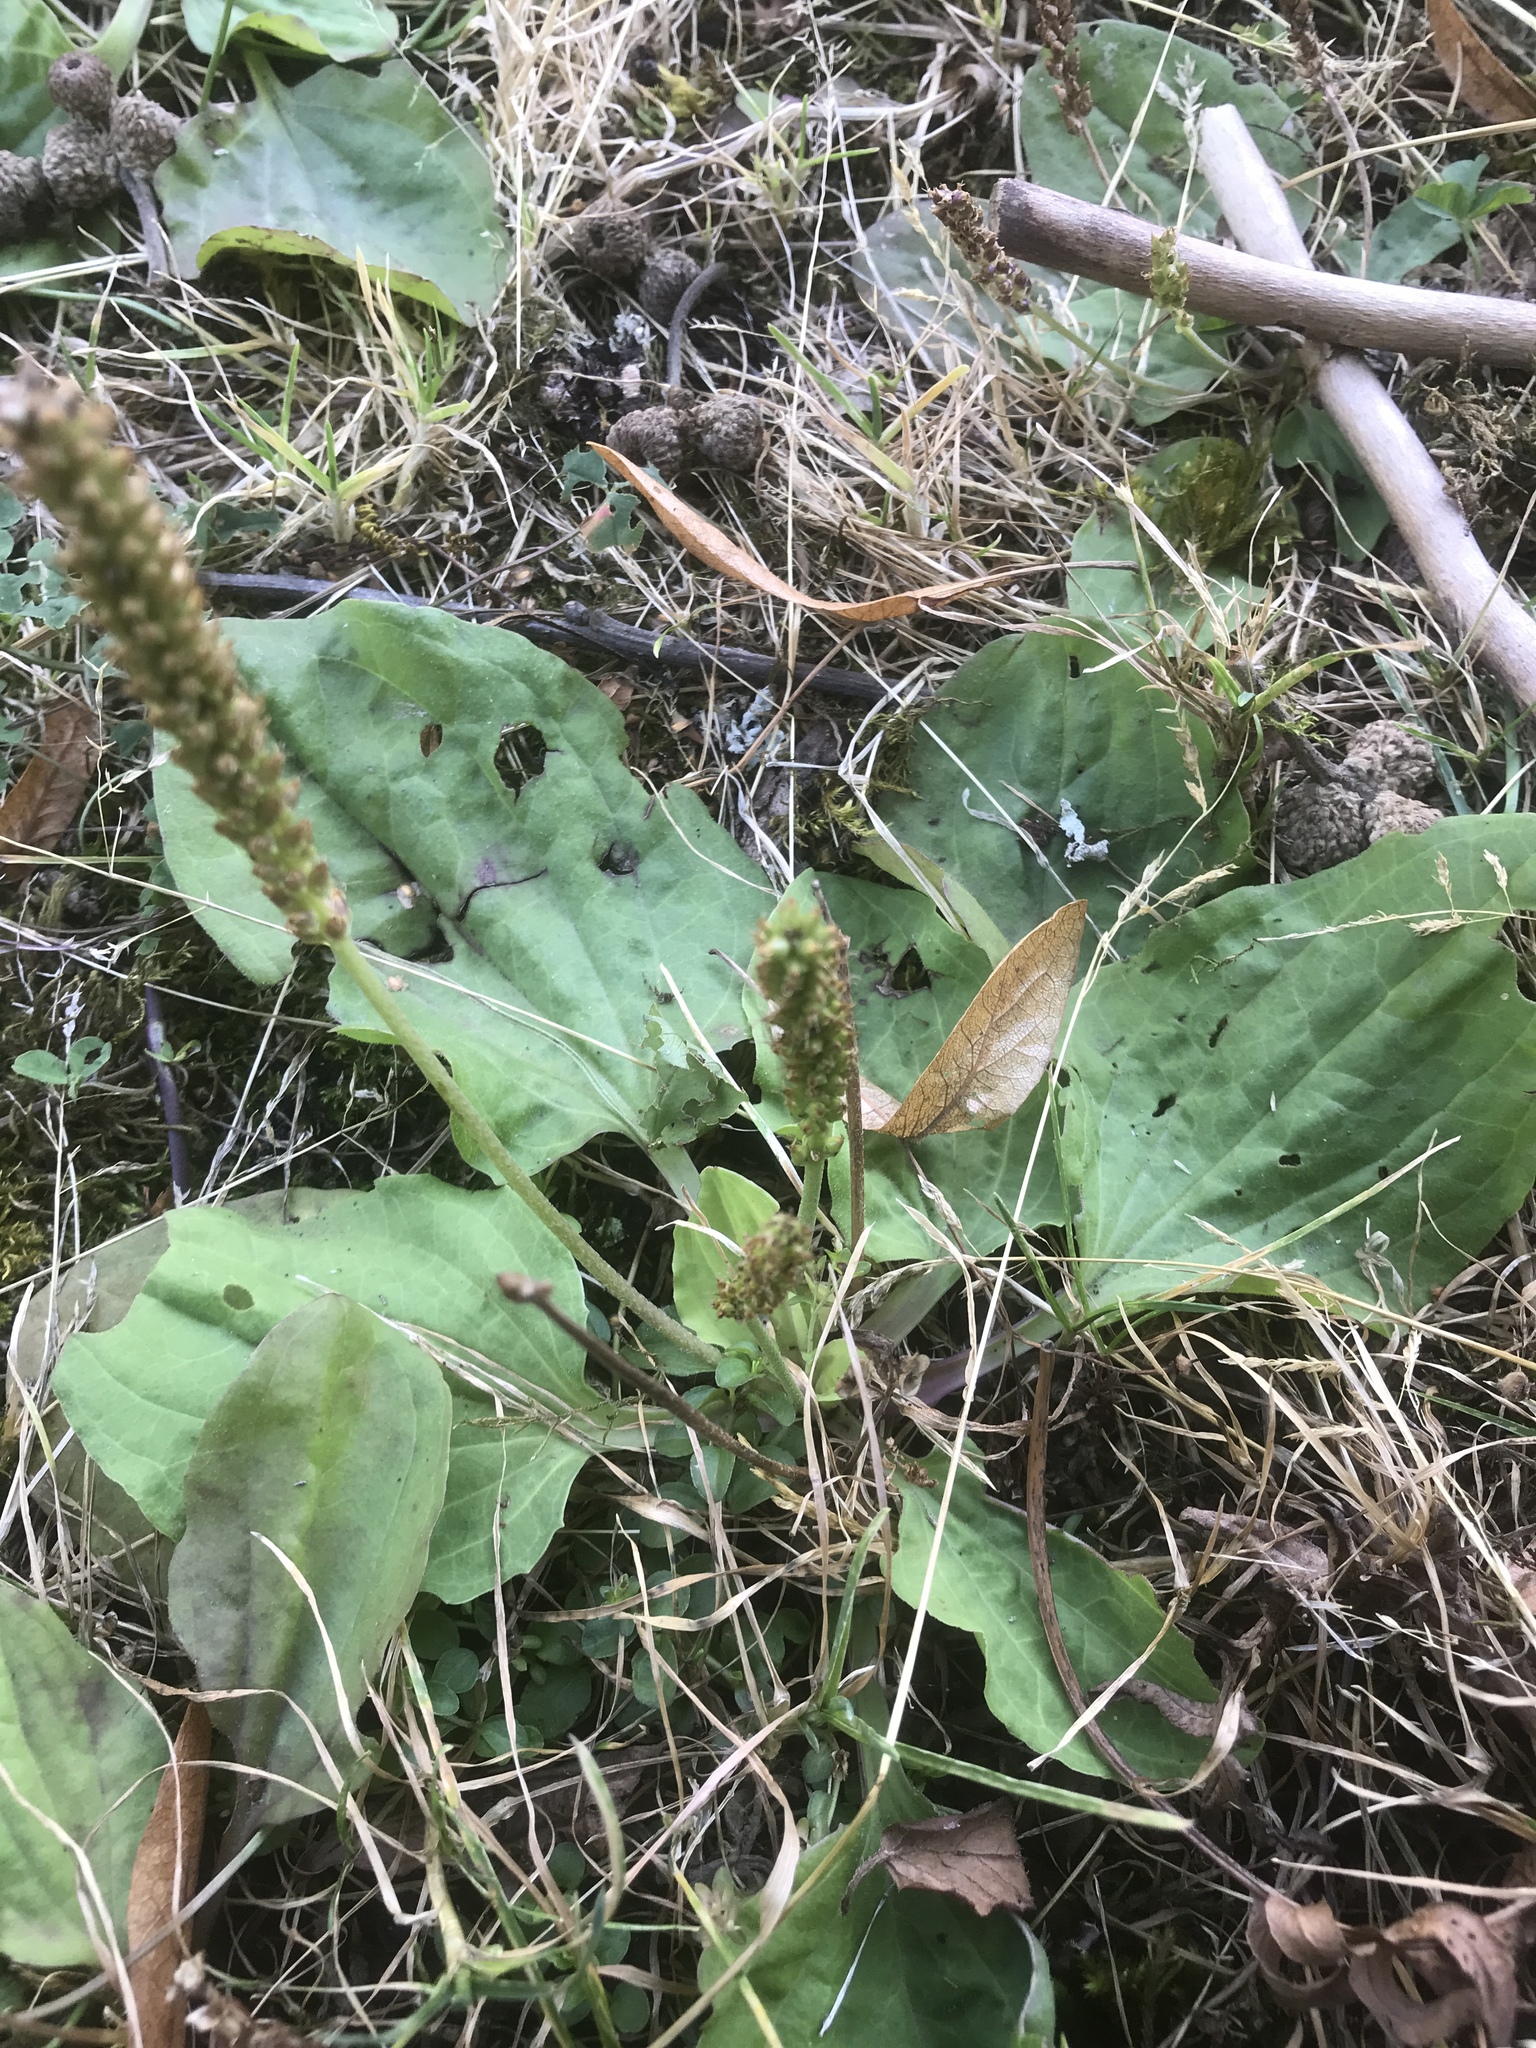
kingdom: Plantae
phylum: Tracheophyta
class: Magnoliopsida
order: Lamiales
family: Plantaginaceae
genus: Plantago
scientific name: Plantago major
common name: Common plantain
